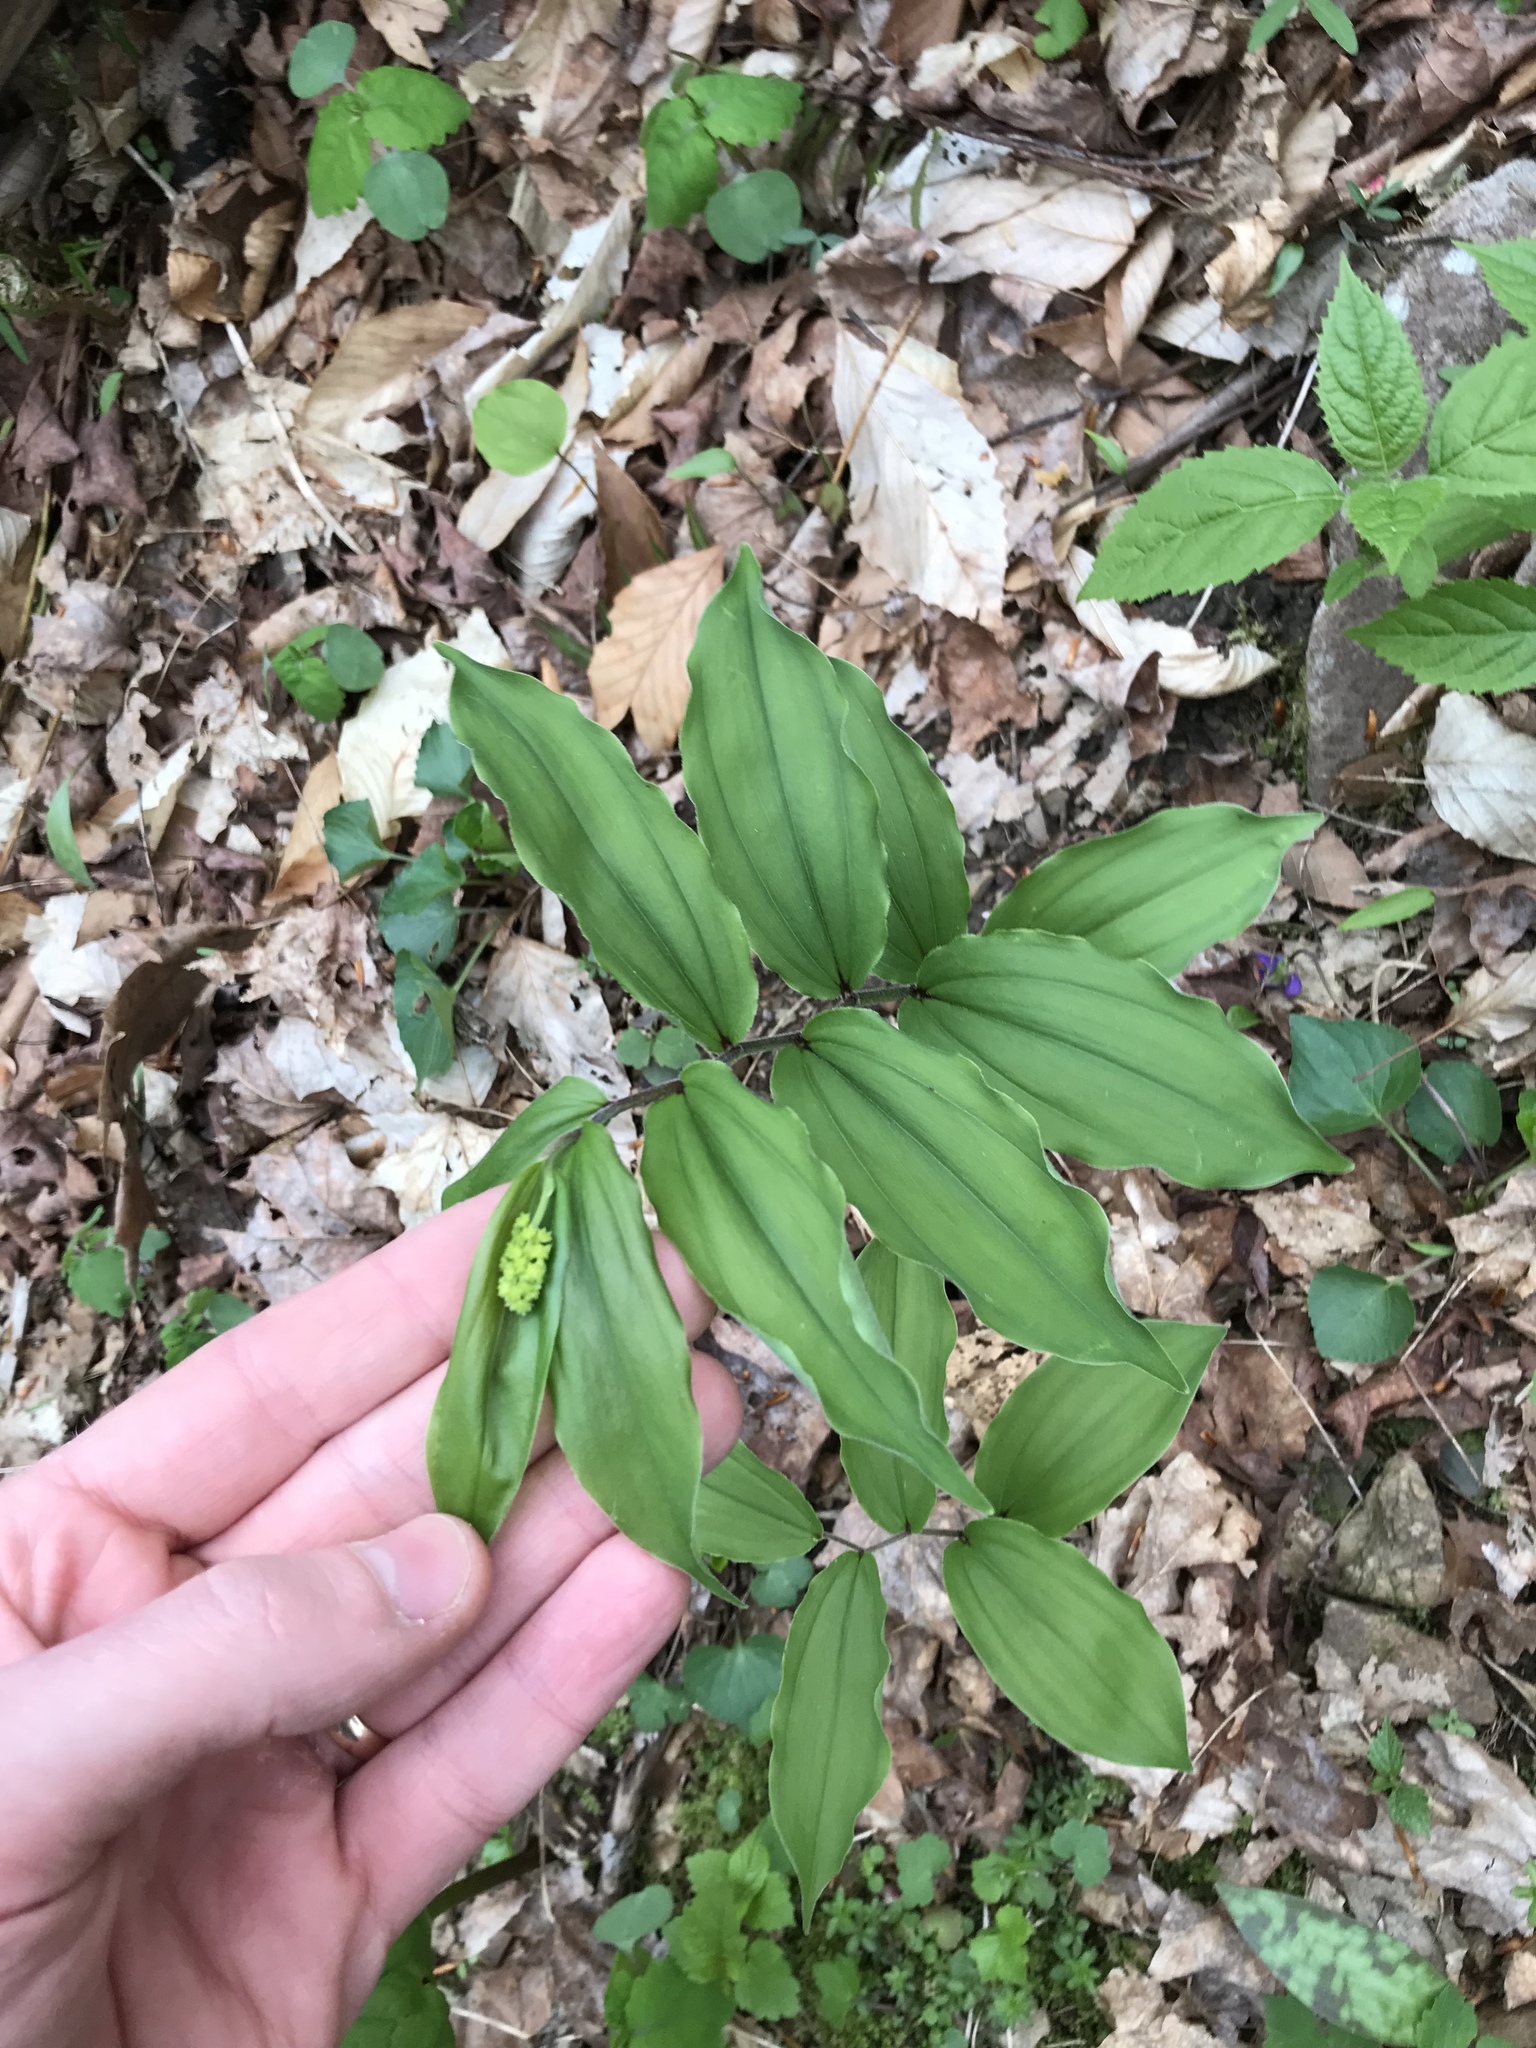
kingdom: Plantae
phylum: Tracheophyta
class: Liliopsida
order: Asparagales
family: Asparagaceae
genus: Maianthemum
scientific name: Maianthemum racemosum
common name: False spikenard
